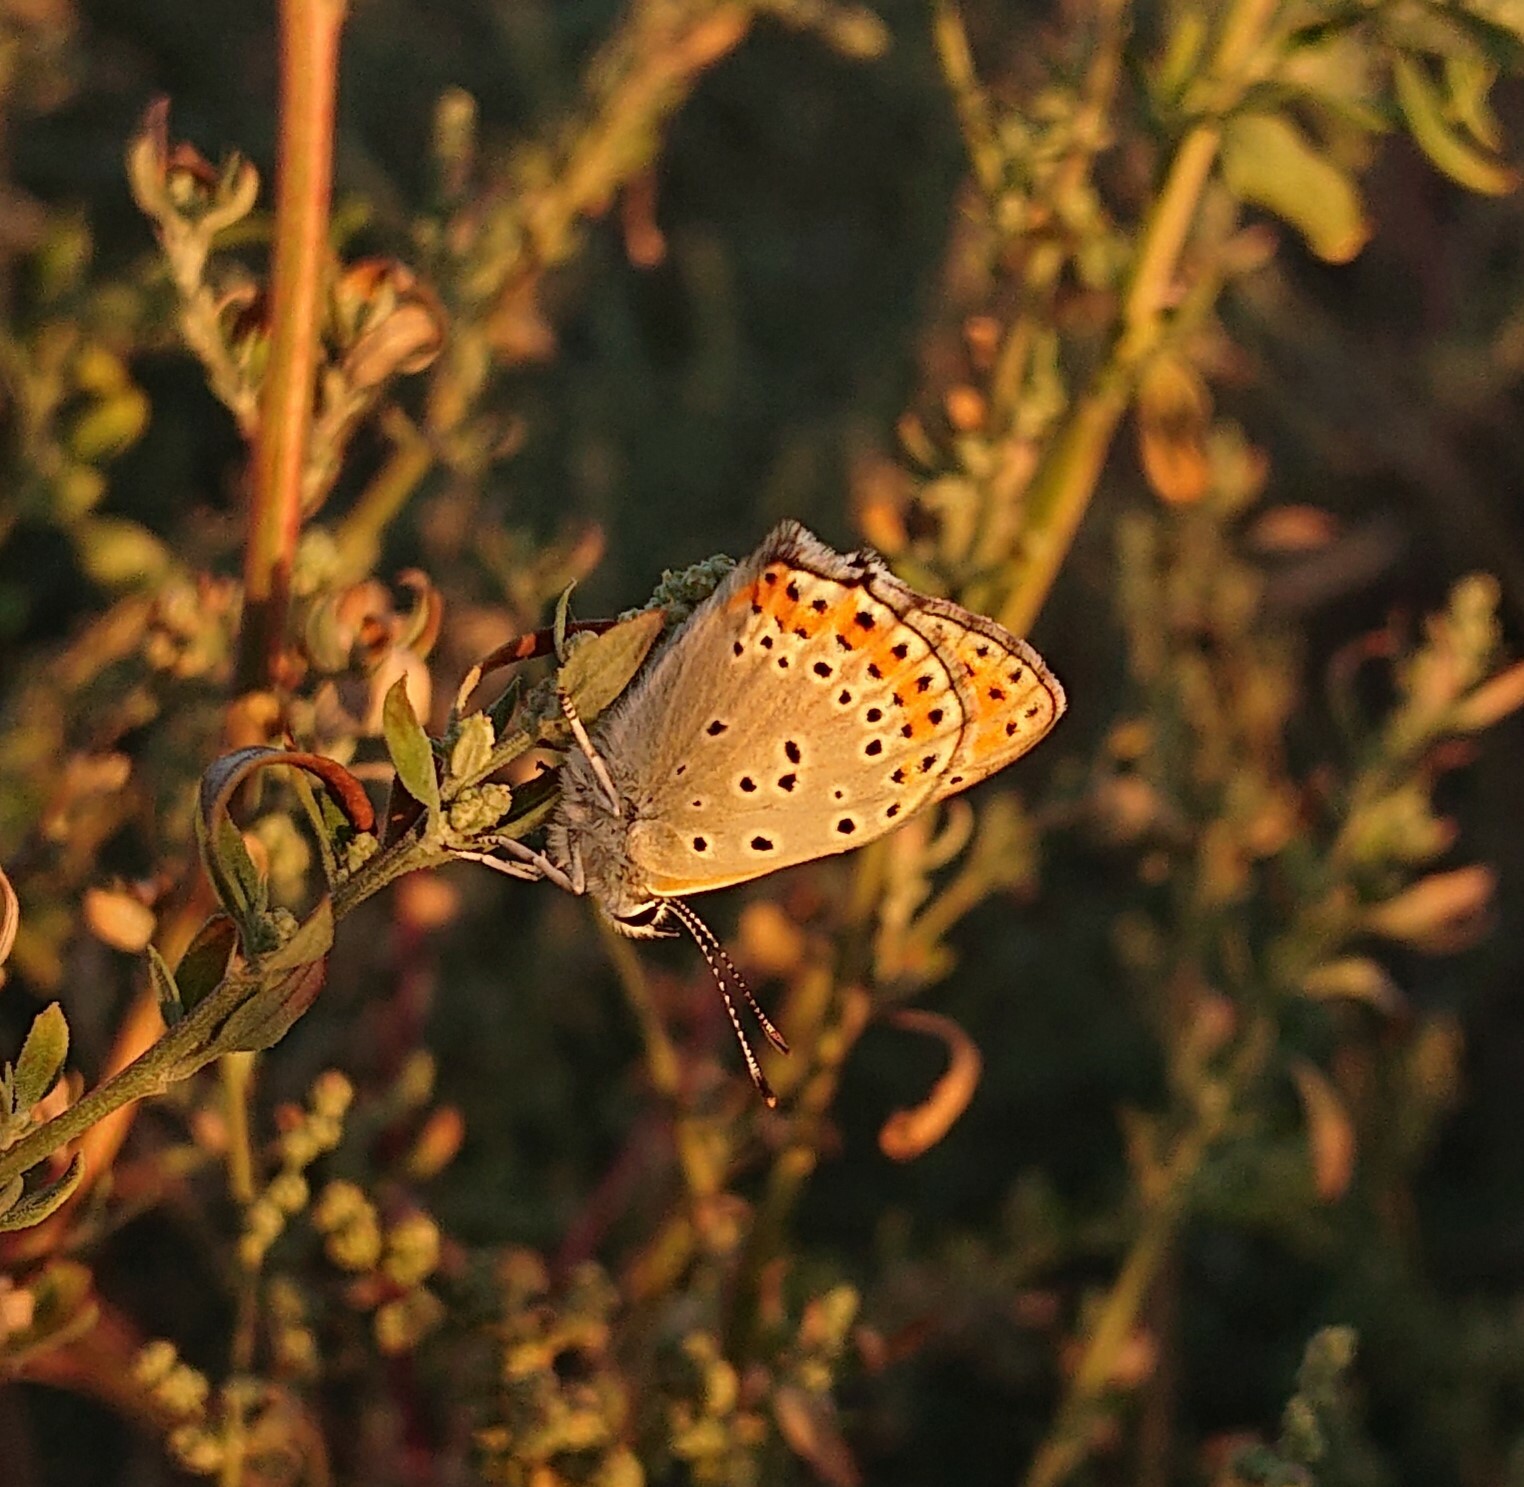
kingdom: Animalia
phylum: Arthropoda
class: Insecta
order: Lepidoptera
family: Lycaenidae
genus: Thersamonia
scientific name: Thersamonia thersamon
